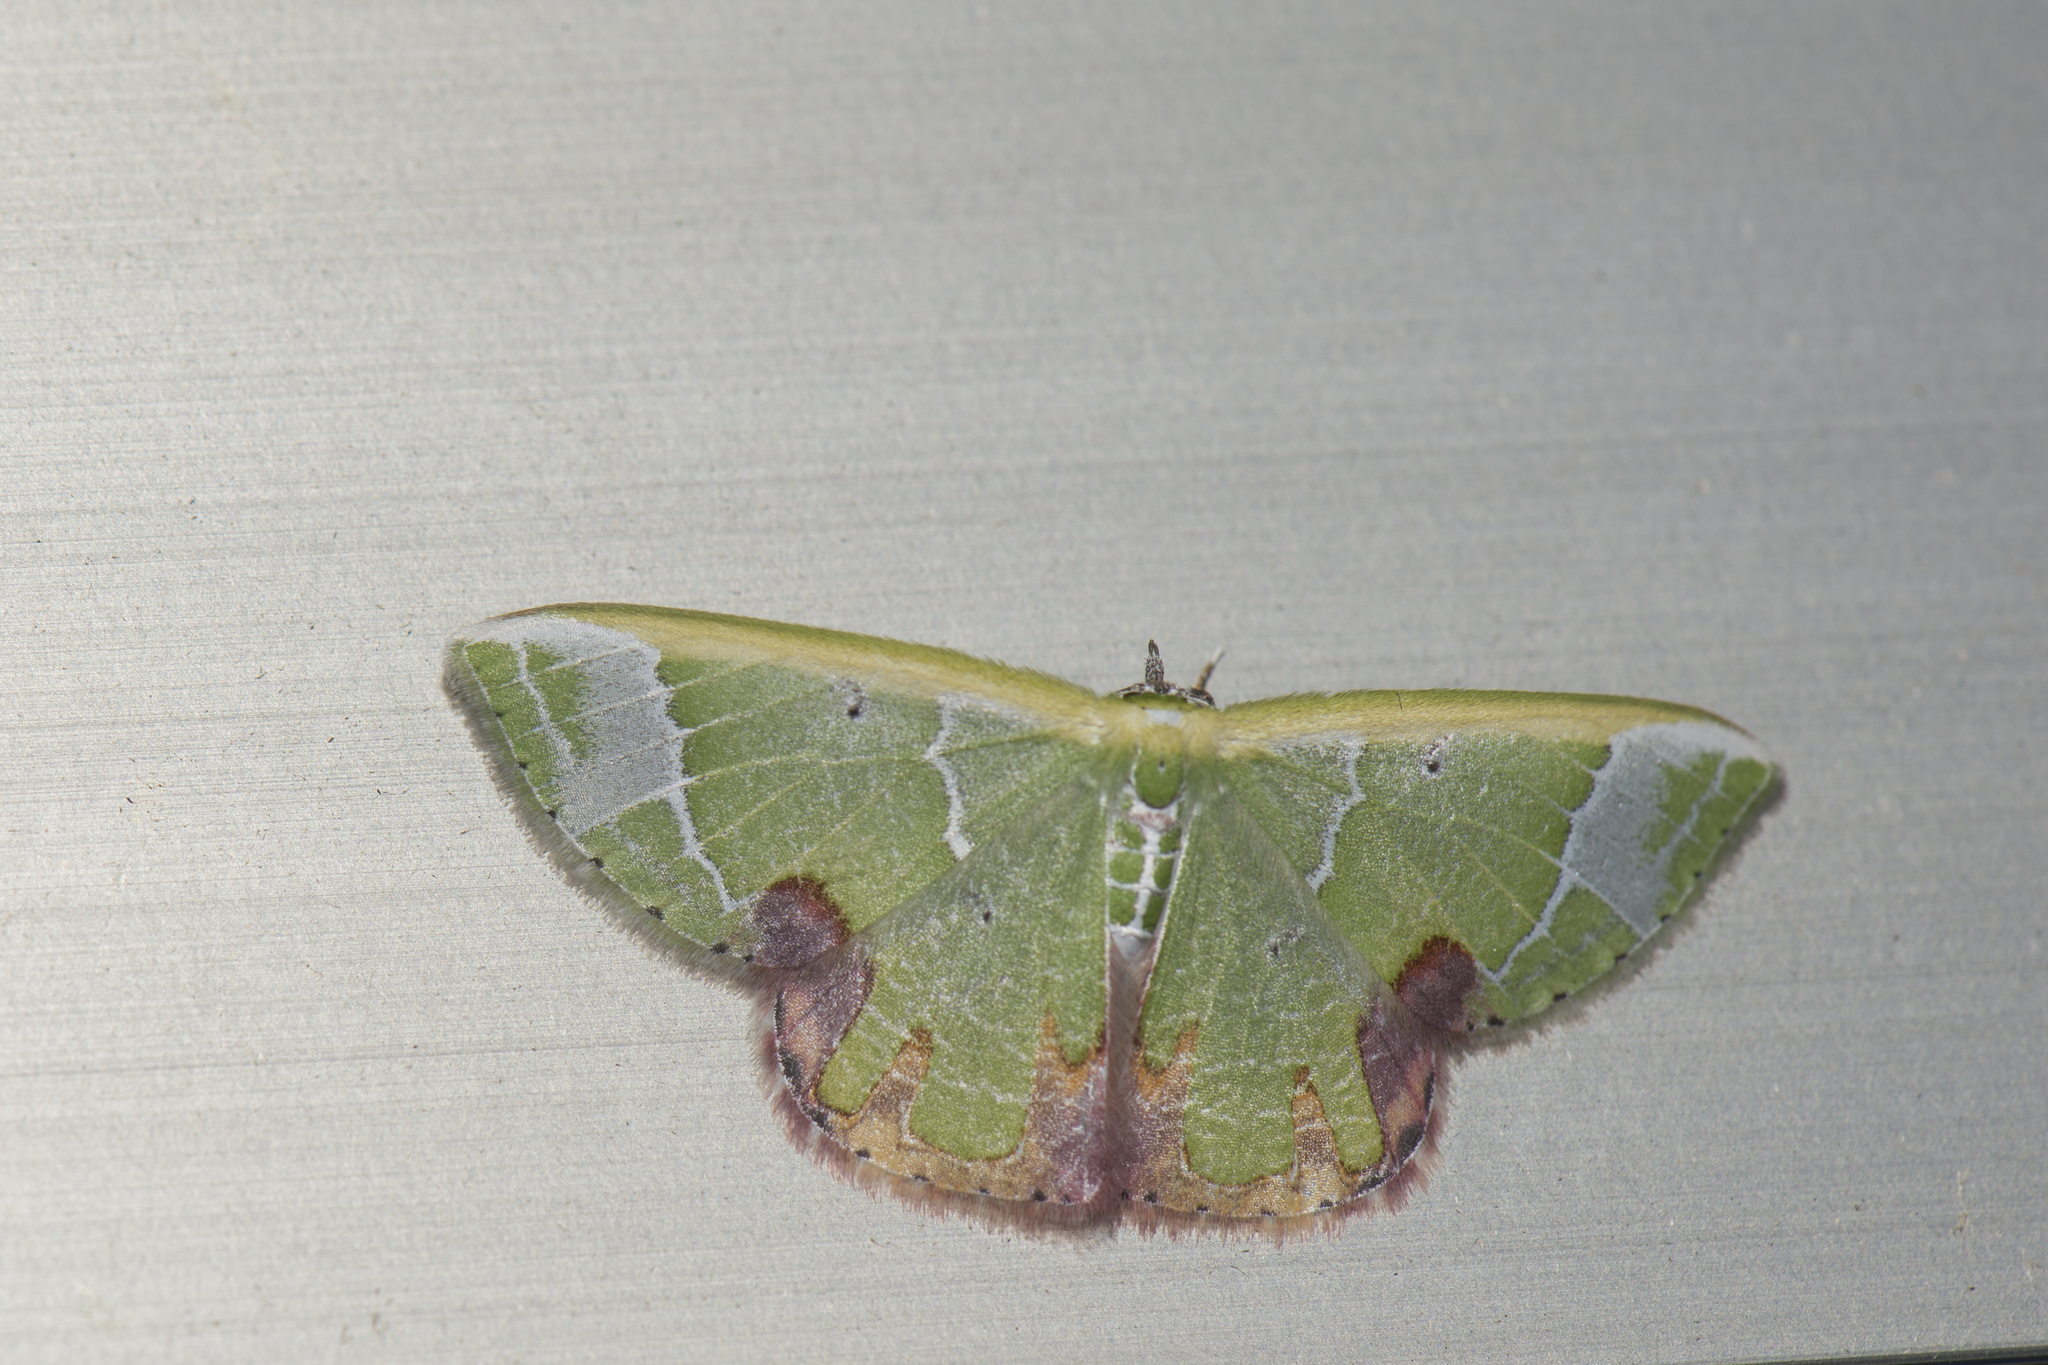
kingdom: Animalia
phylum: Arthropoda
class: Insecta
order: Lepidoptera
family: Geometridae
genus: Comibaena
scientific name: Comibaena pictipennis
